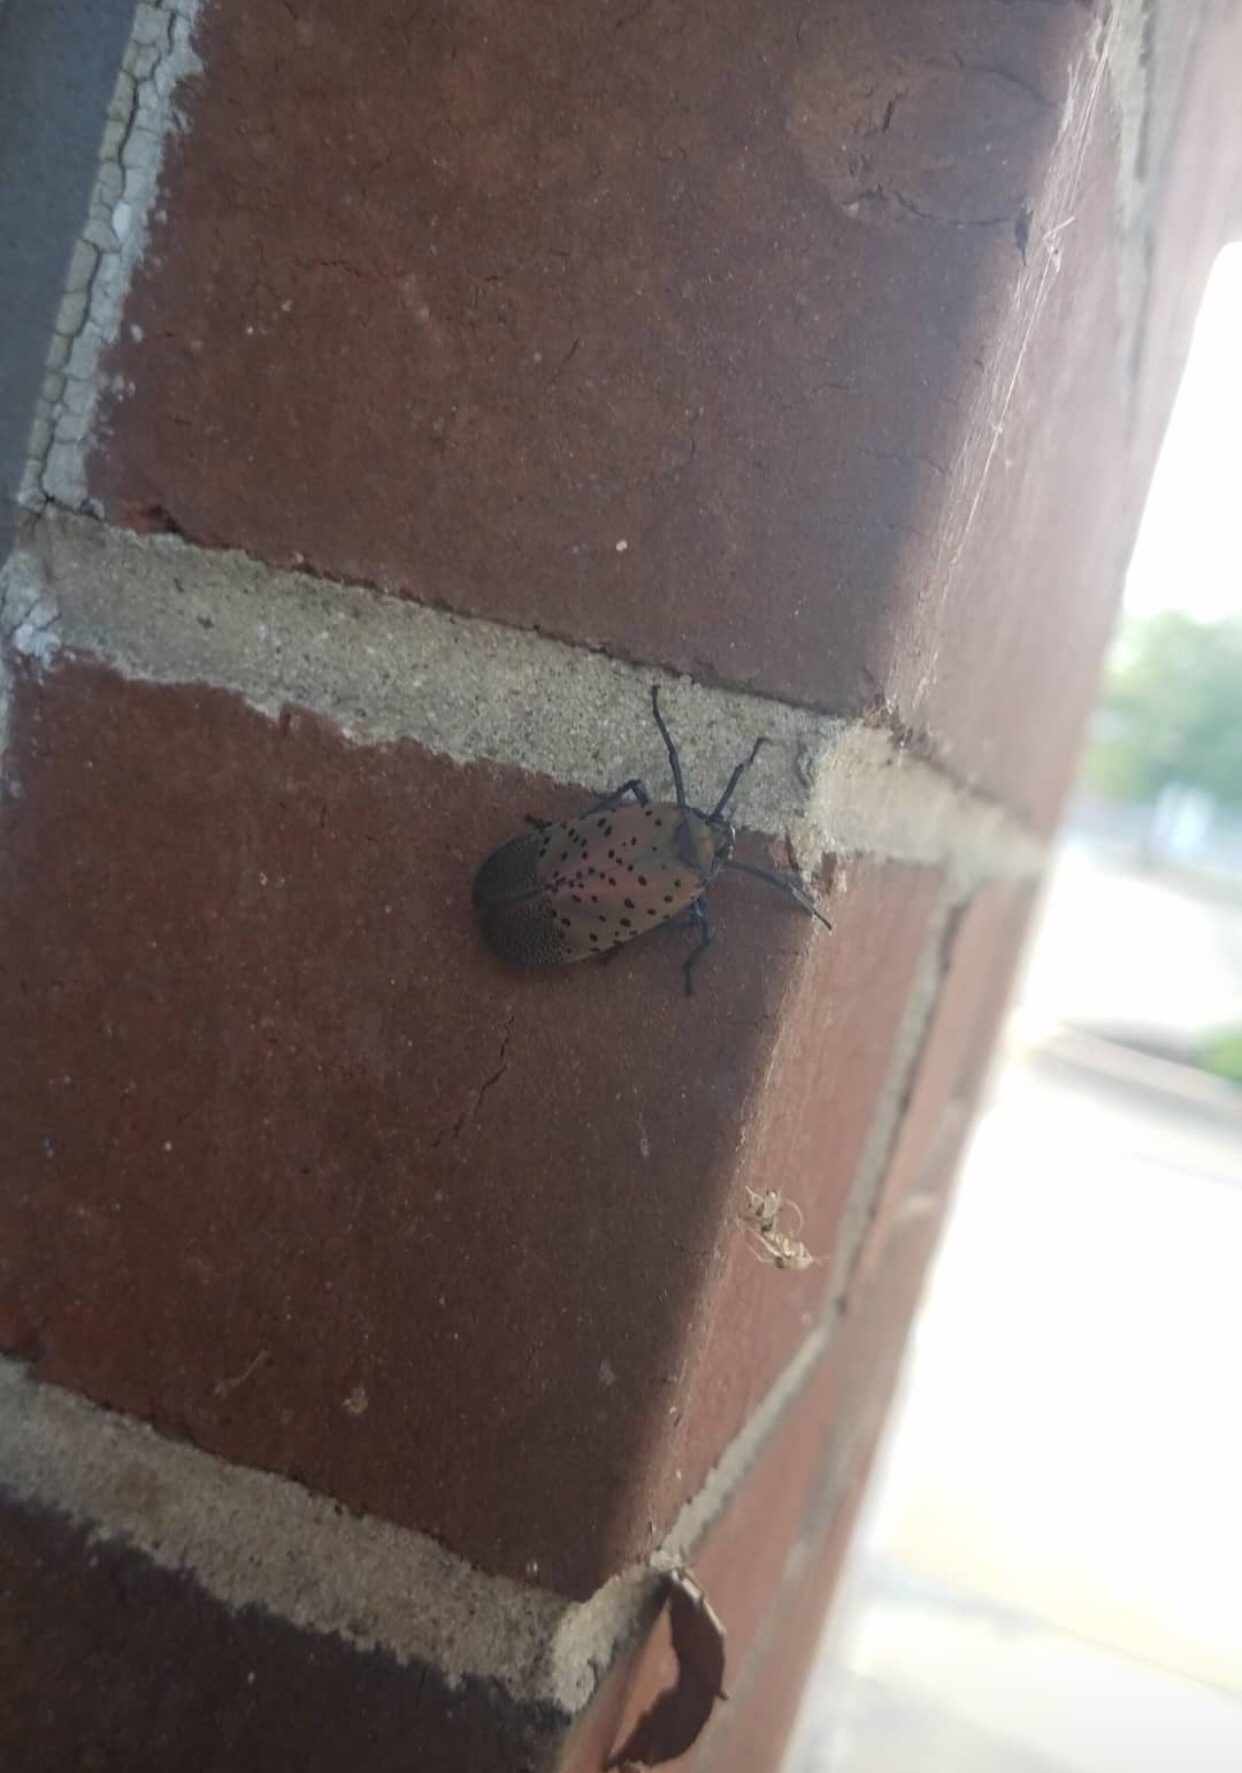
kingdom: Animalia
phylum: Arthropoda
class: Insecta
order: Hemiptera
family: Fulgoridae
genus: Lycorma
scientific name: Lycorma delicatula
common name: Spotted lanternfly
